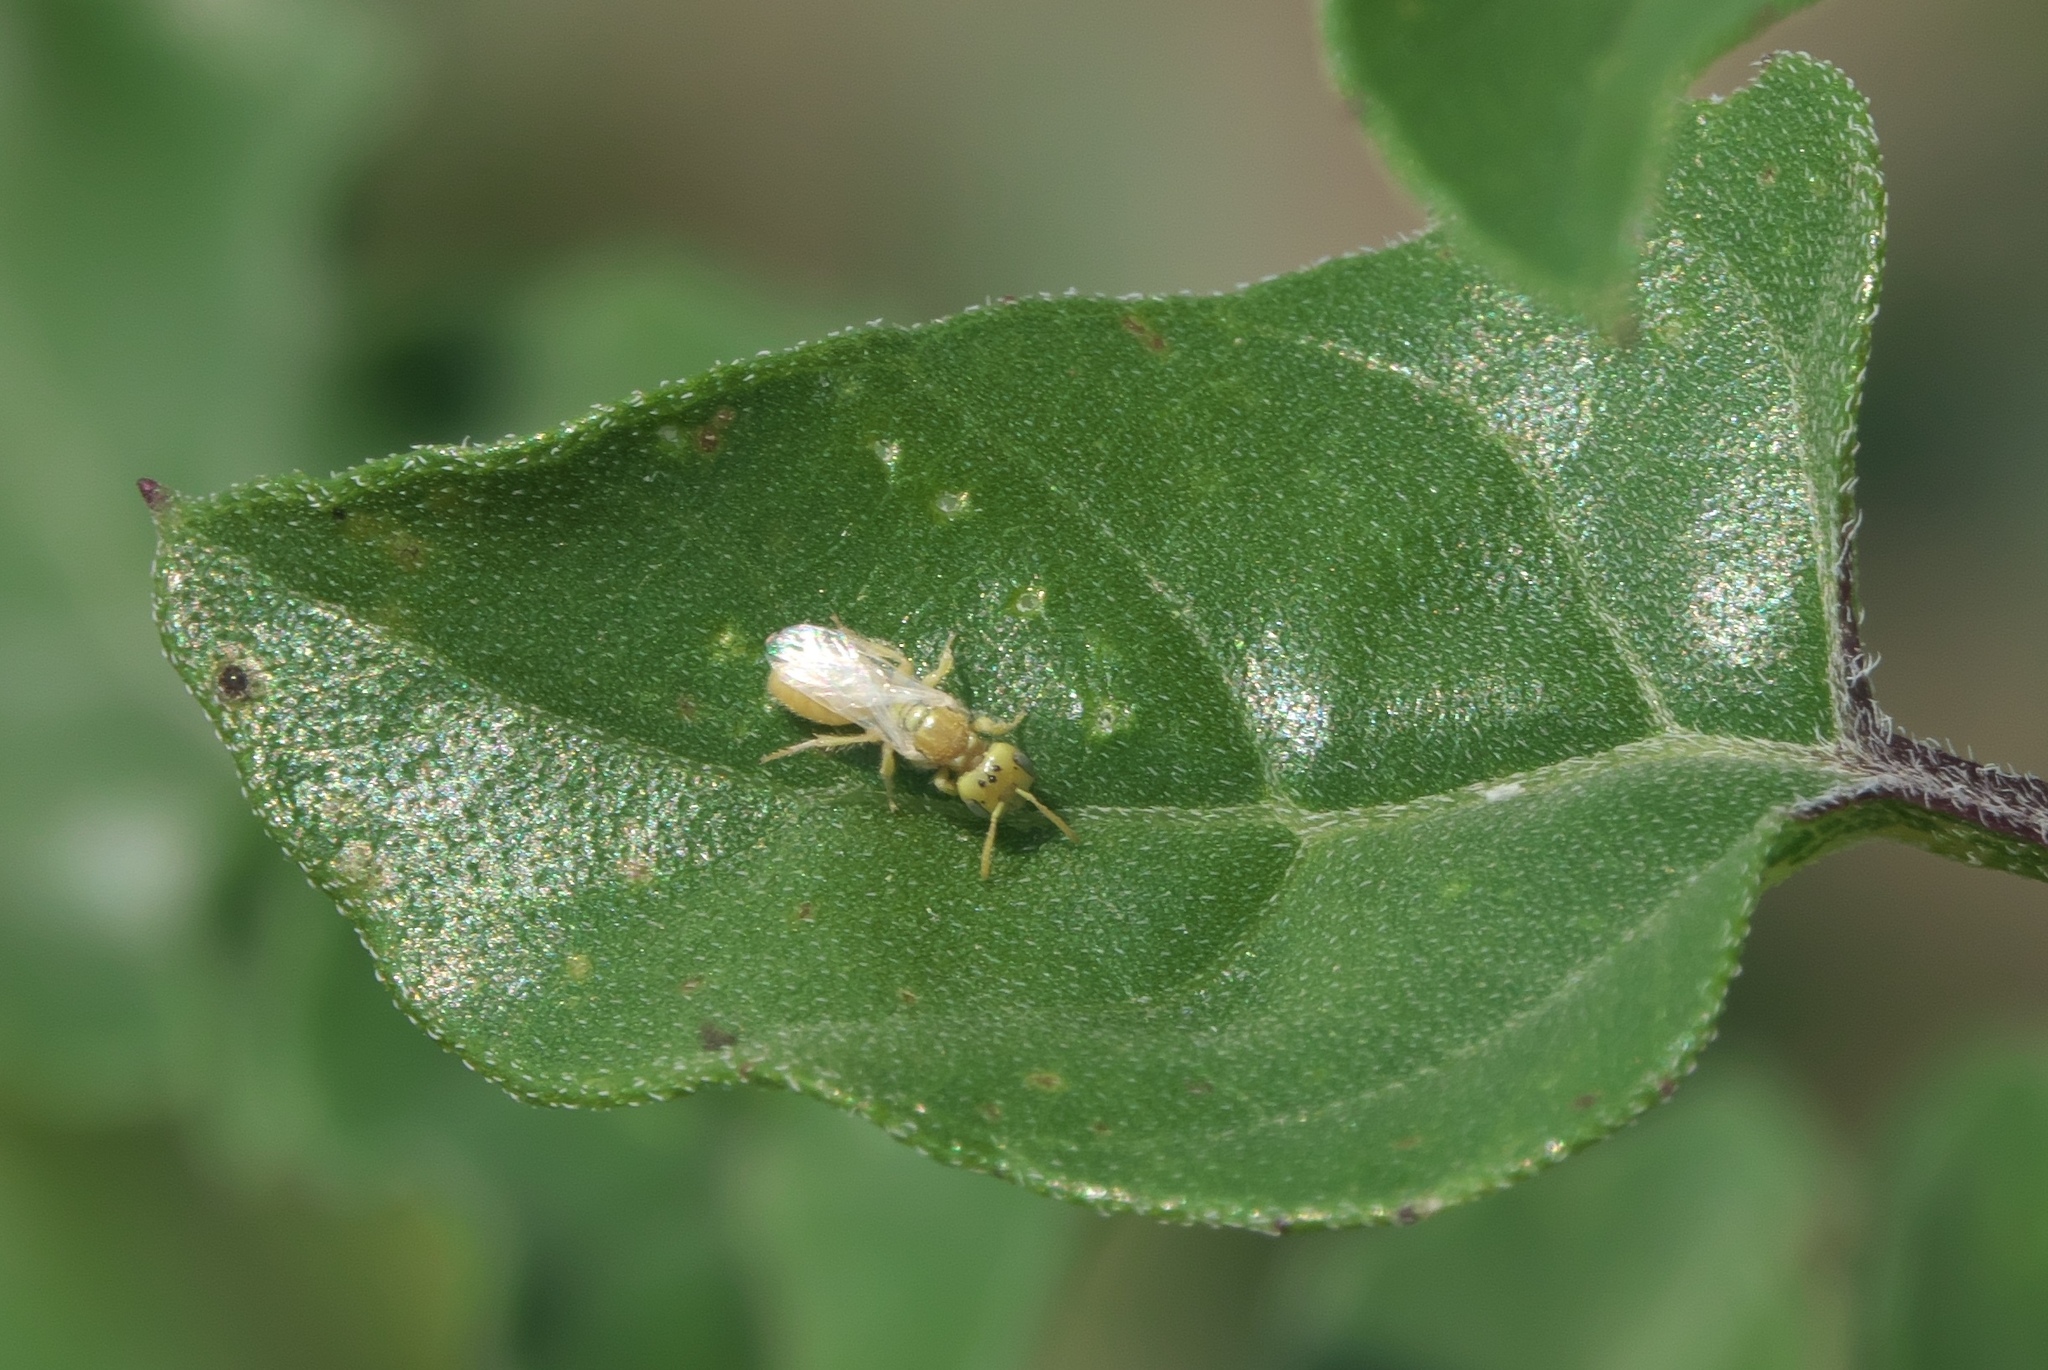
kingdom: Animalia
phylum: Arthropoda
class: Insecta
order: Hymenoptera
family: Andrenidae
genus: Perdita
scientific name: Perdita
